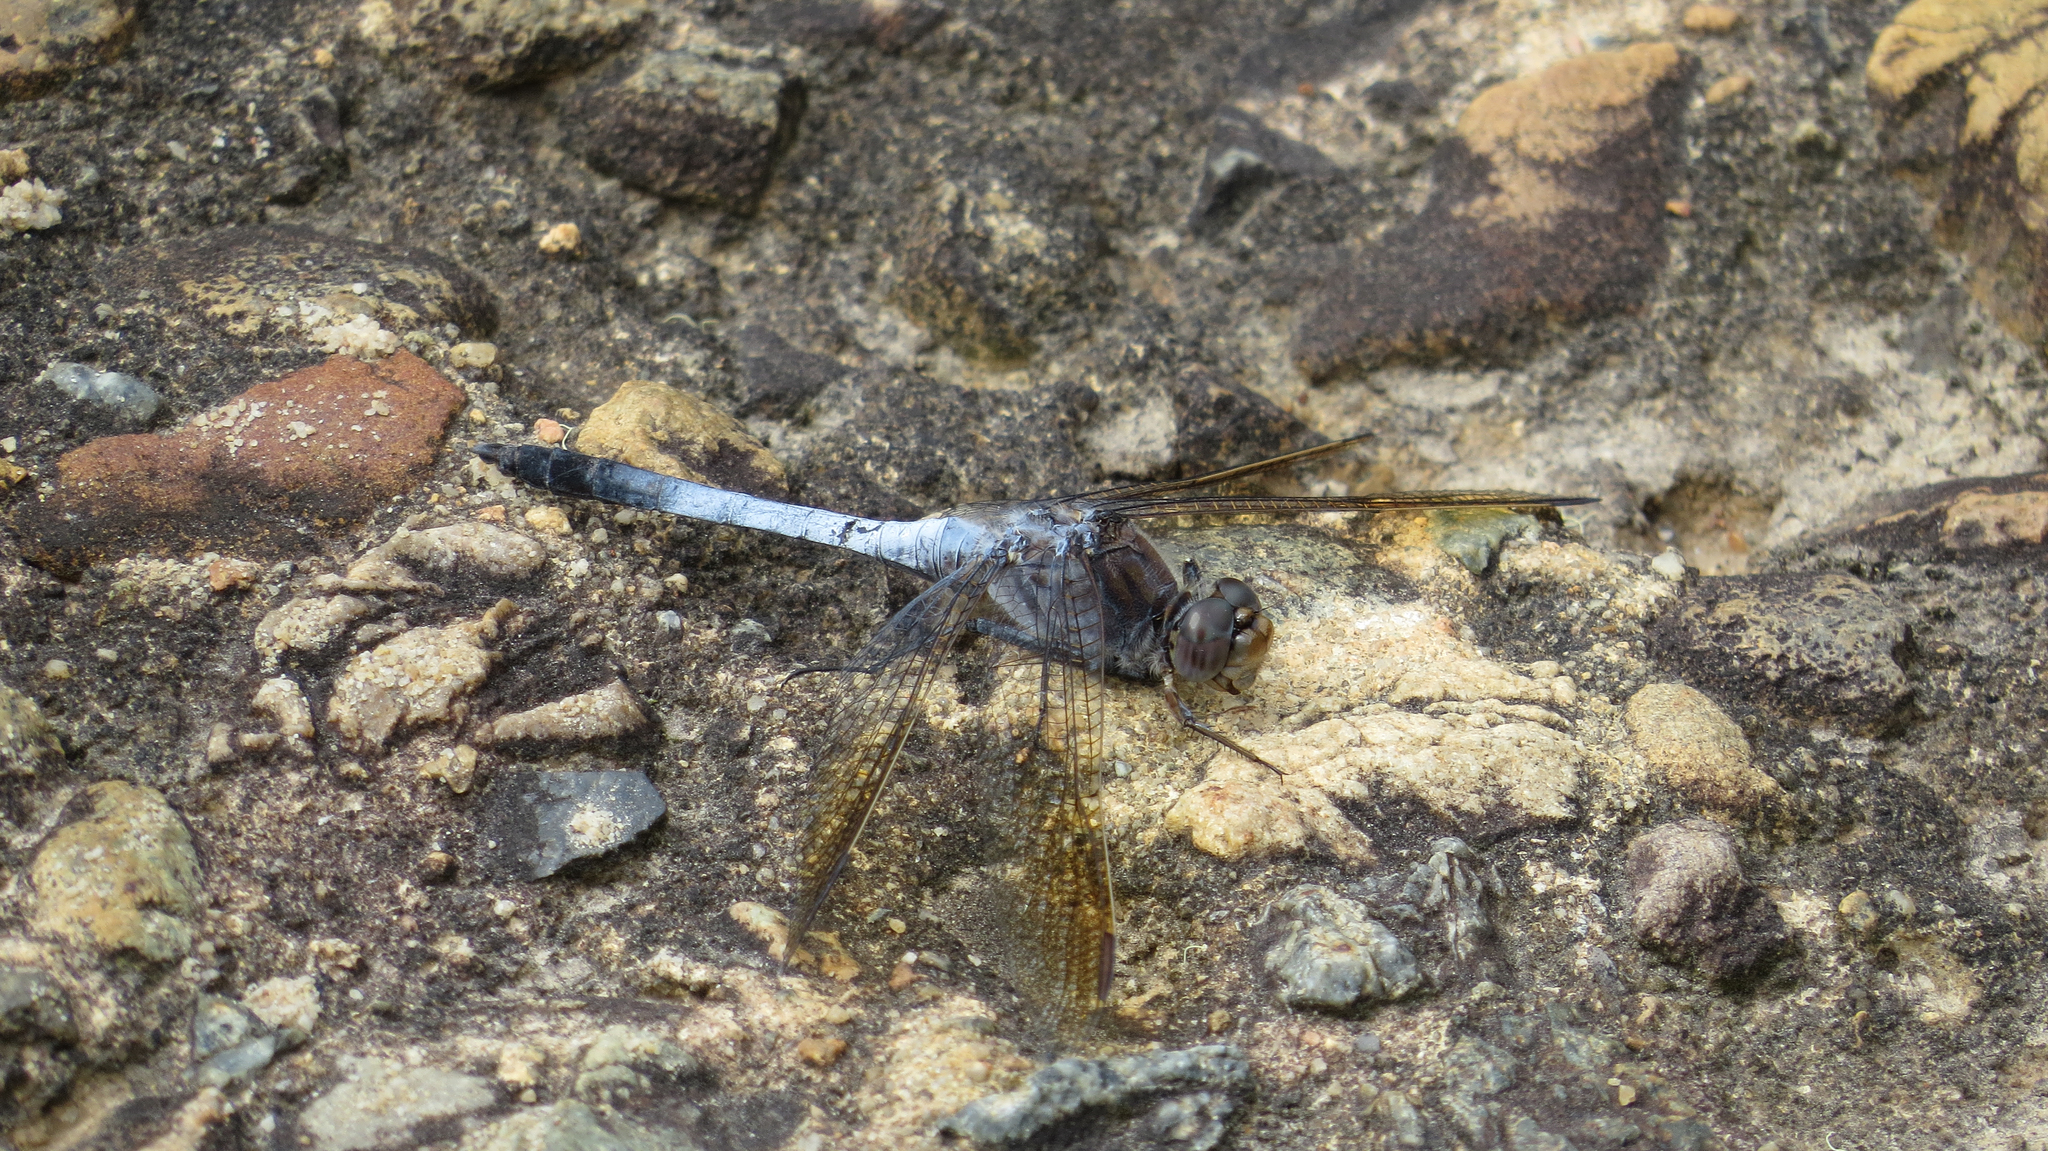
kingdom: Animalia
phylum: Arthropoda
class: Insecta
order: Odonata
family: Libellulidae
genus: Orthetrum
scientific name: Orthetrum caledonicum
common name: Blue skimmer
